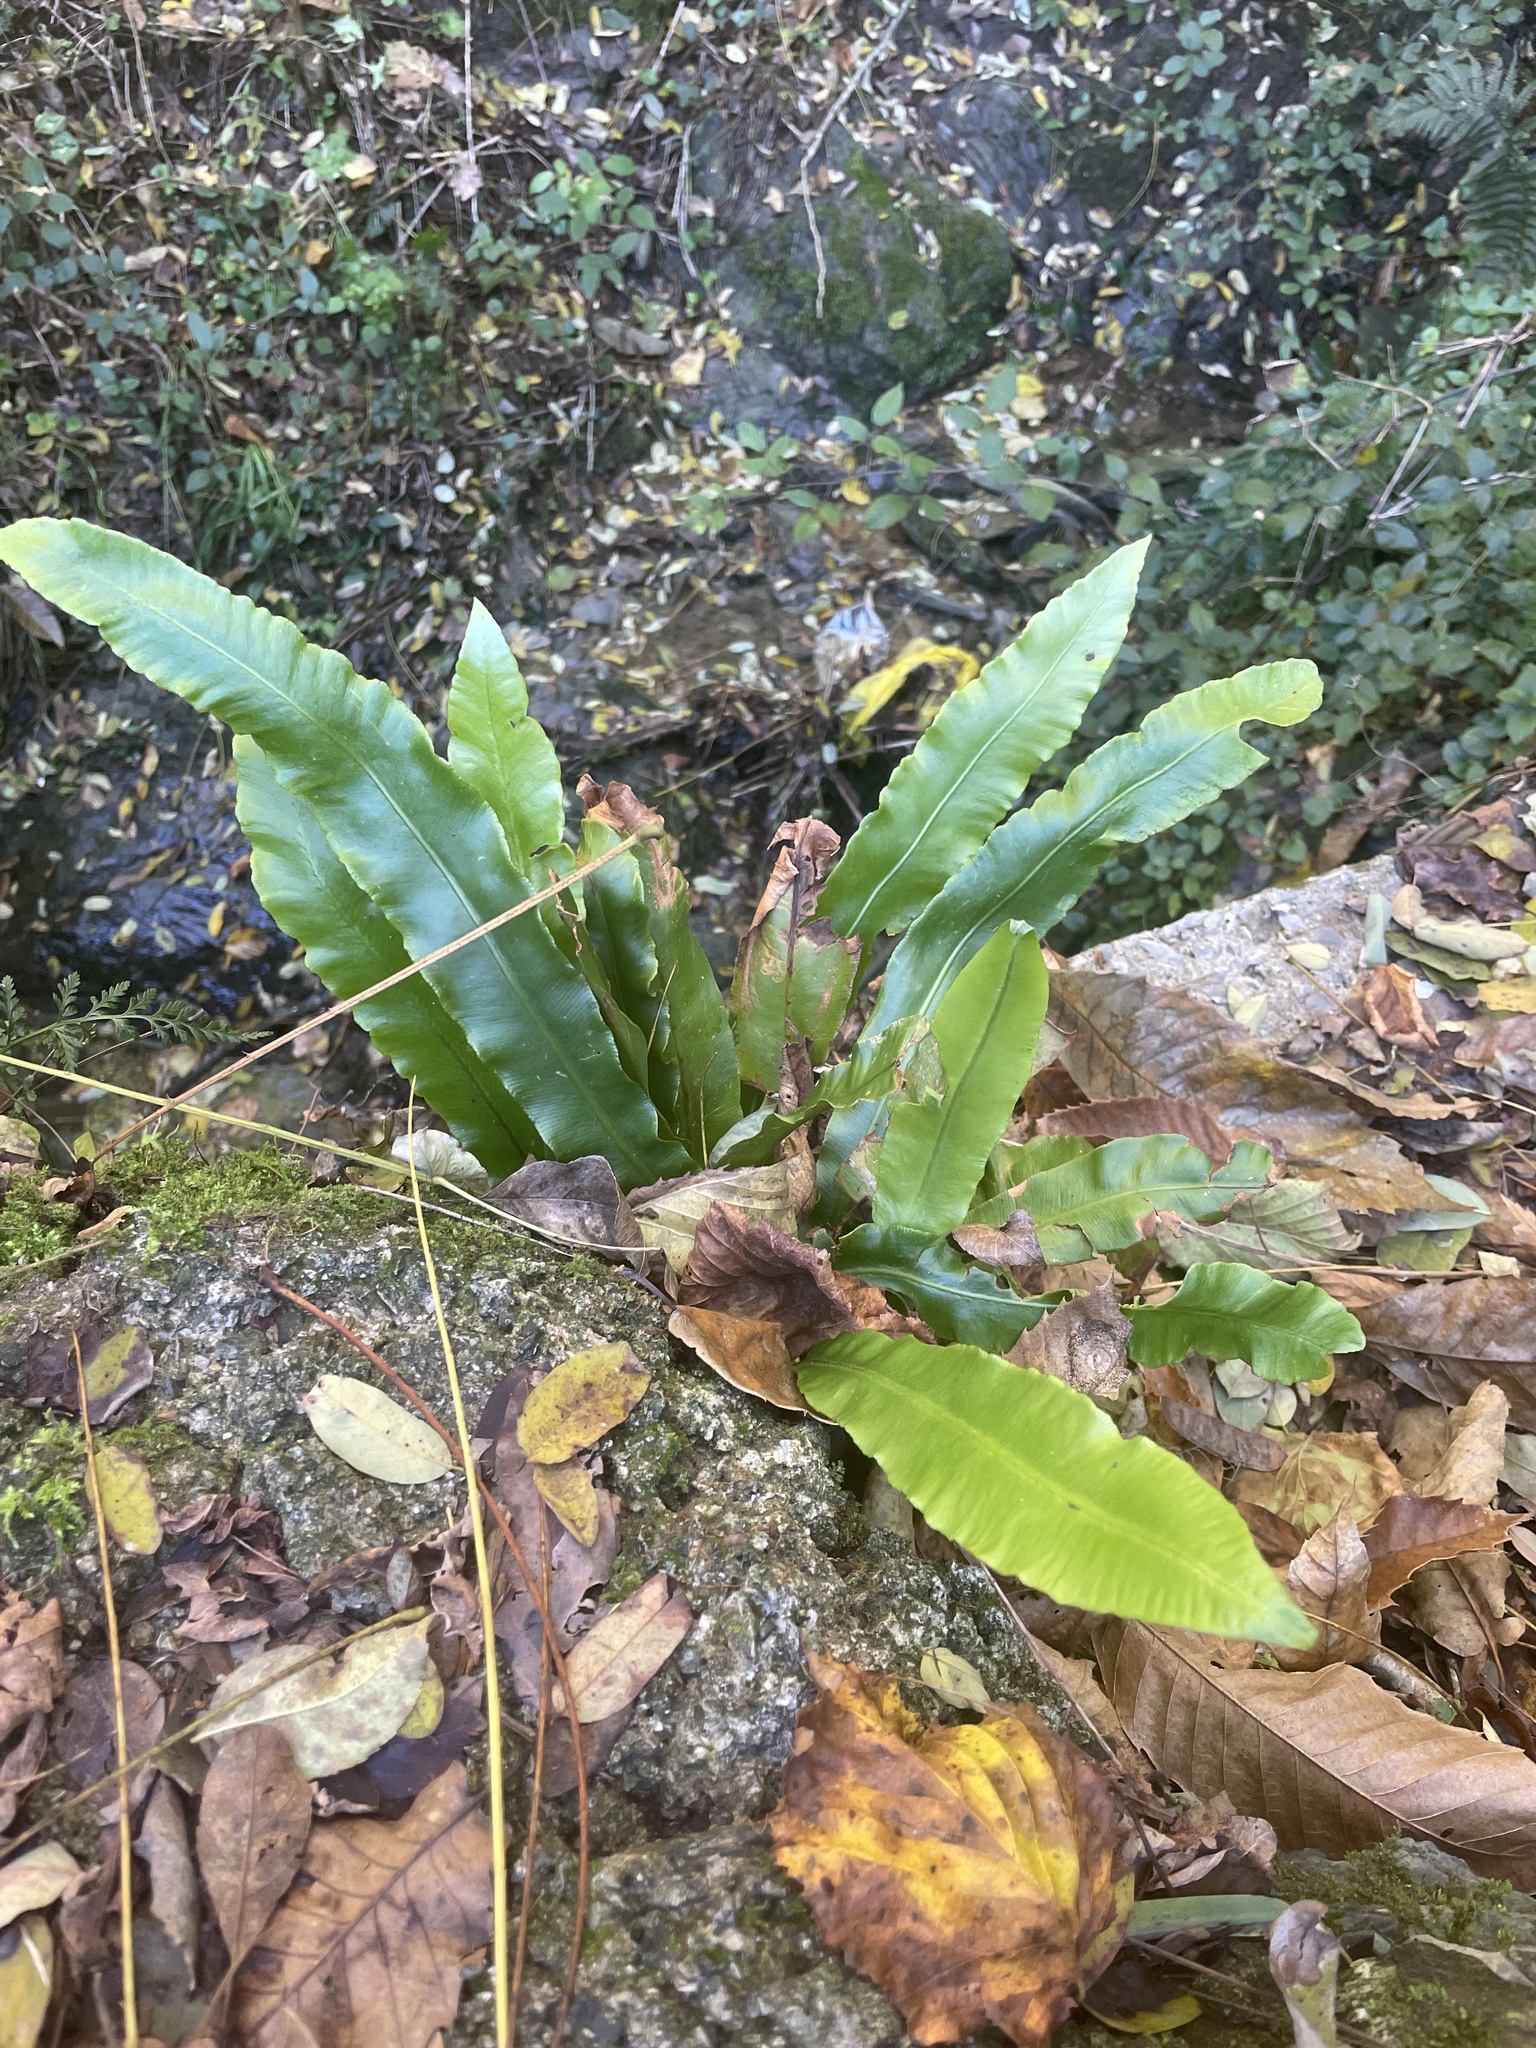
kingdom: Plantae
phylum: Tracheophyta
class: Polypodiopsida
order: Polypodiales
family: Aspleniaceae
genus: Asplenium
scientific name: Asplenium scolopendrium
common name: Hart's-tongue fern
